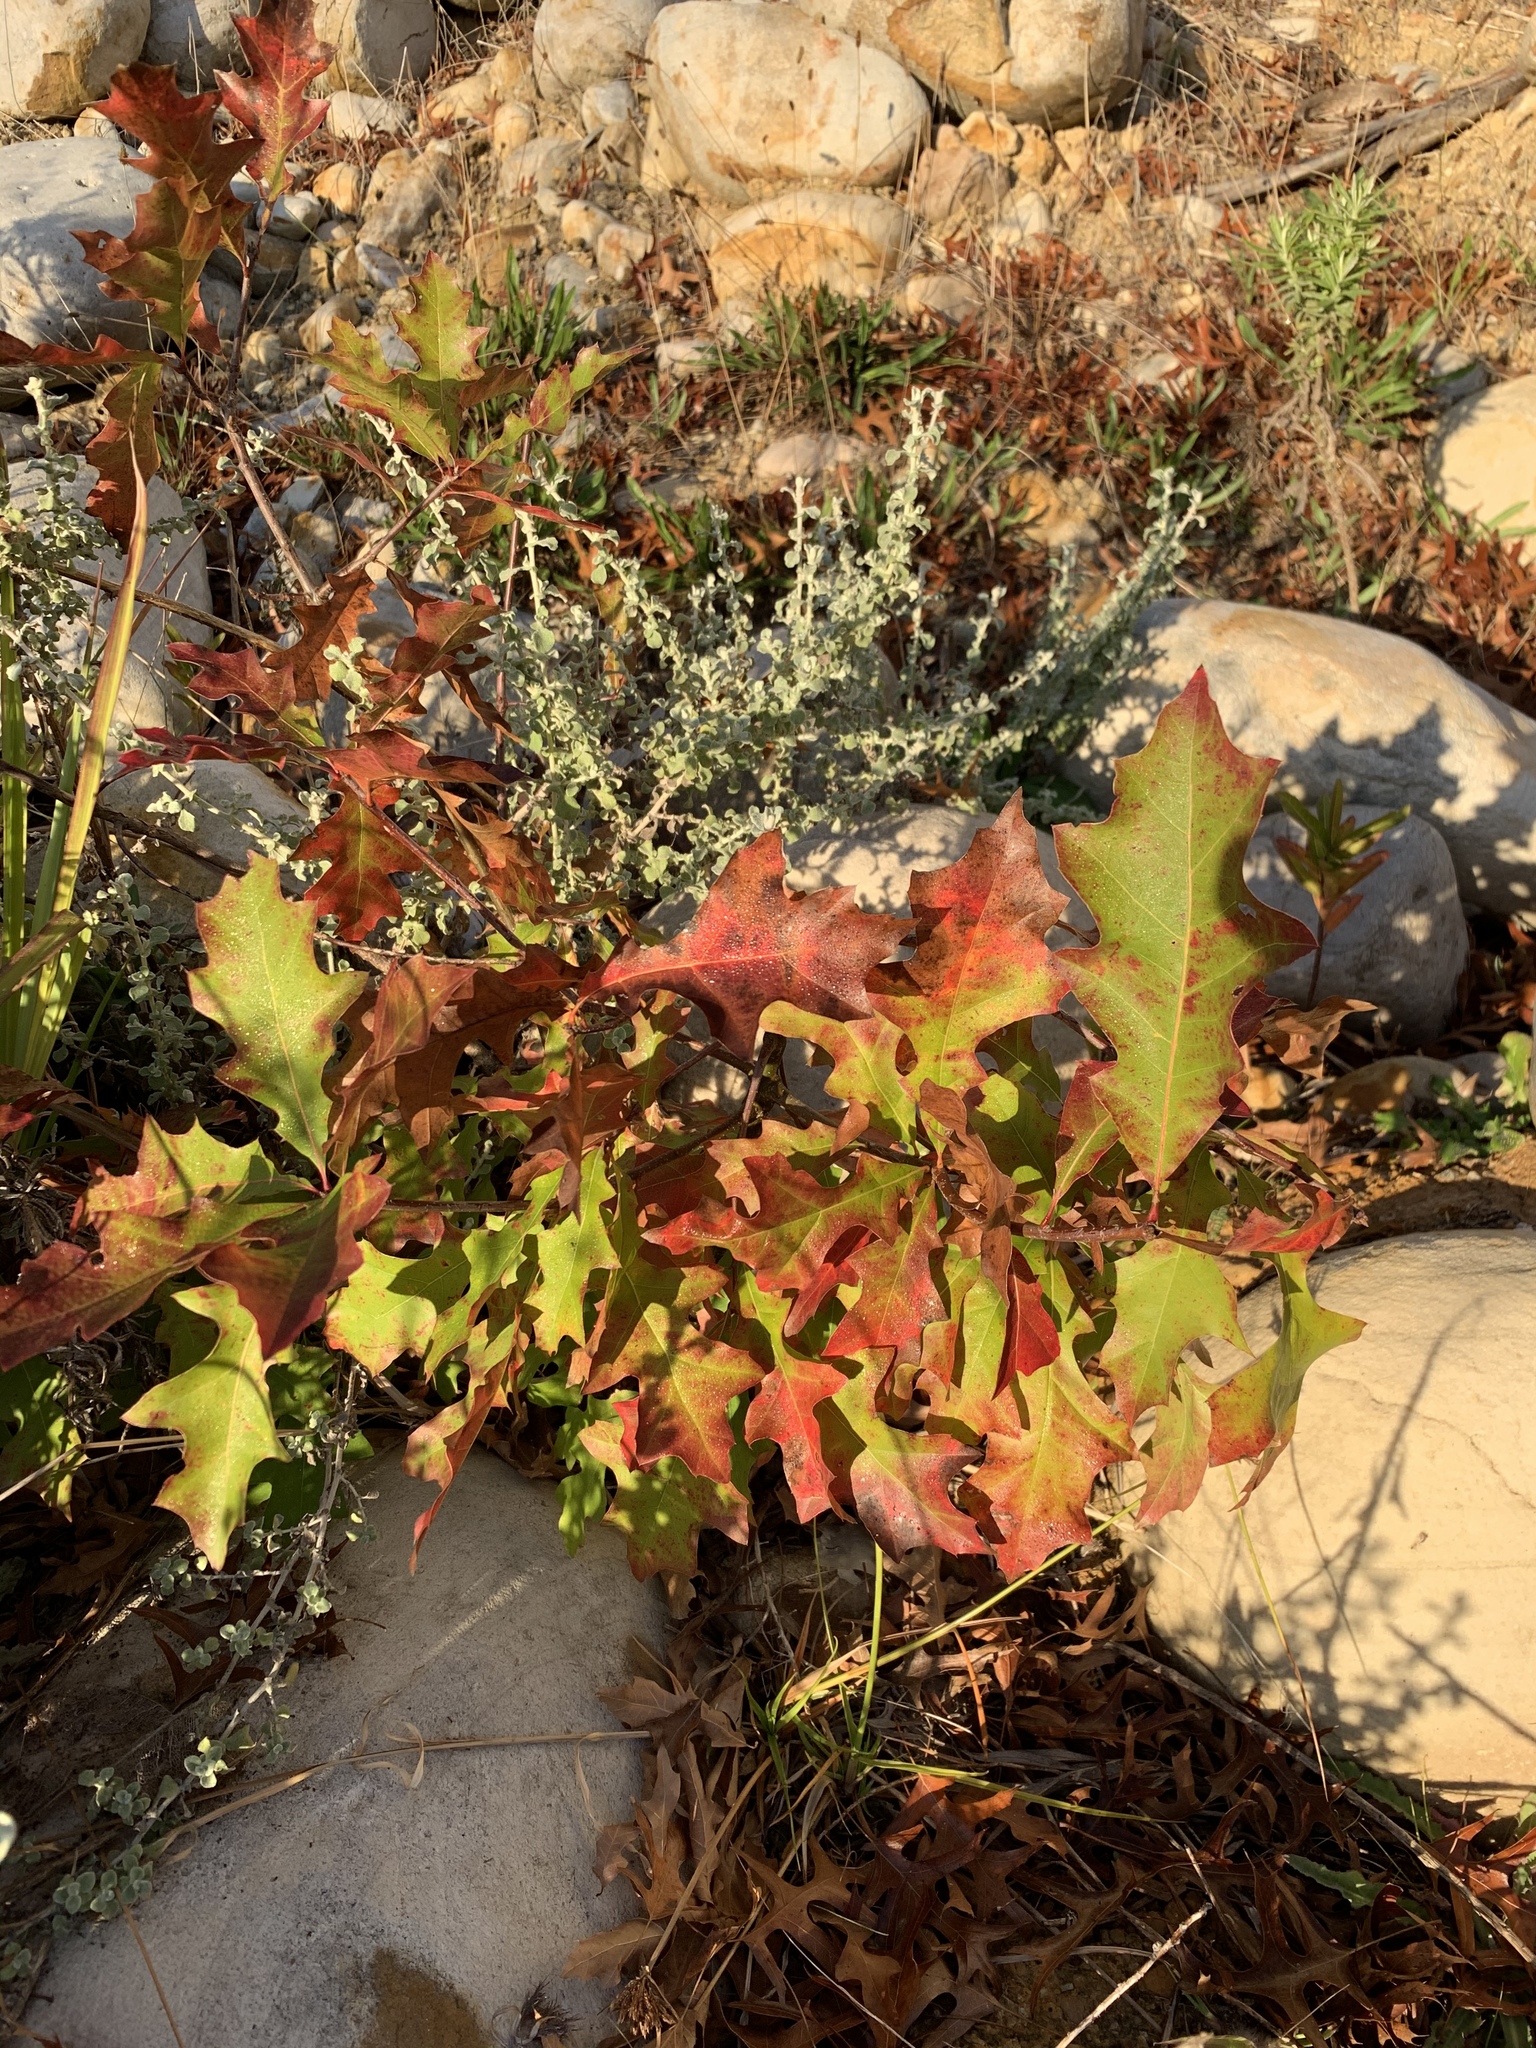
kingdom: Plantae
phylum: Tracheophyta
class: Magnoliopsida
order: Fagales
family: Fagaceae
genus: Quercus
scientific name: Quercus palustris
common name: Pin oak
